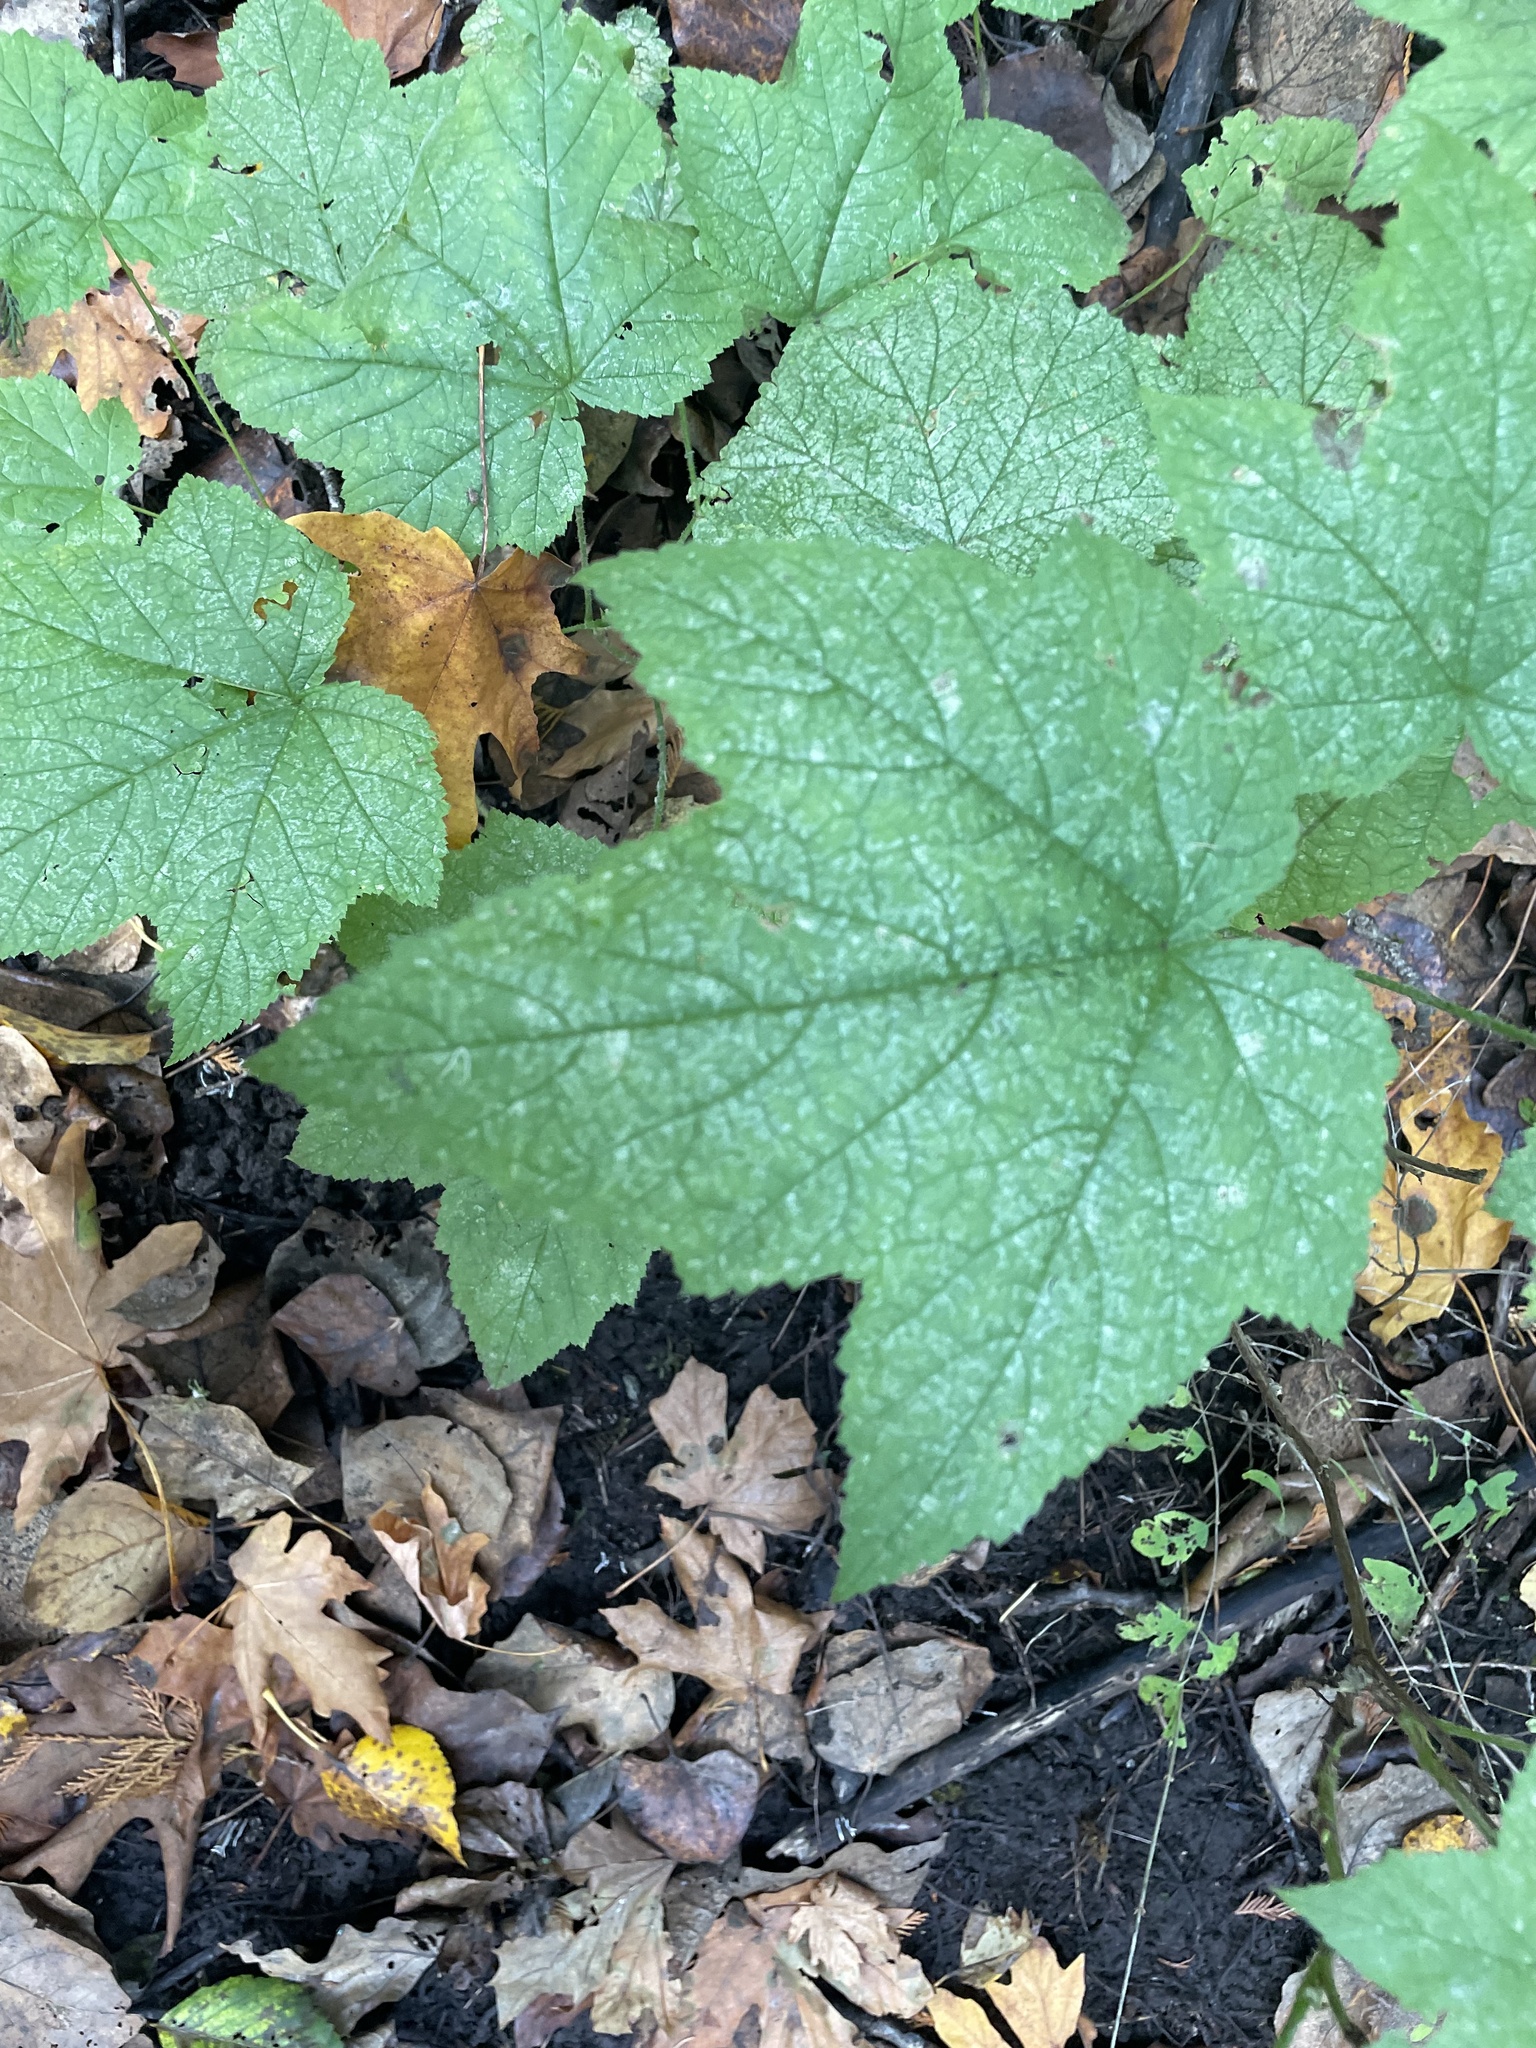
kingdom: Plantae
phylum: Tracheophyta
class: Magnoliopsida
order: Rosales
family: Rosaceae
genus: Rubus
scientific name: Rubus parviflorus
